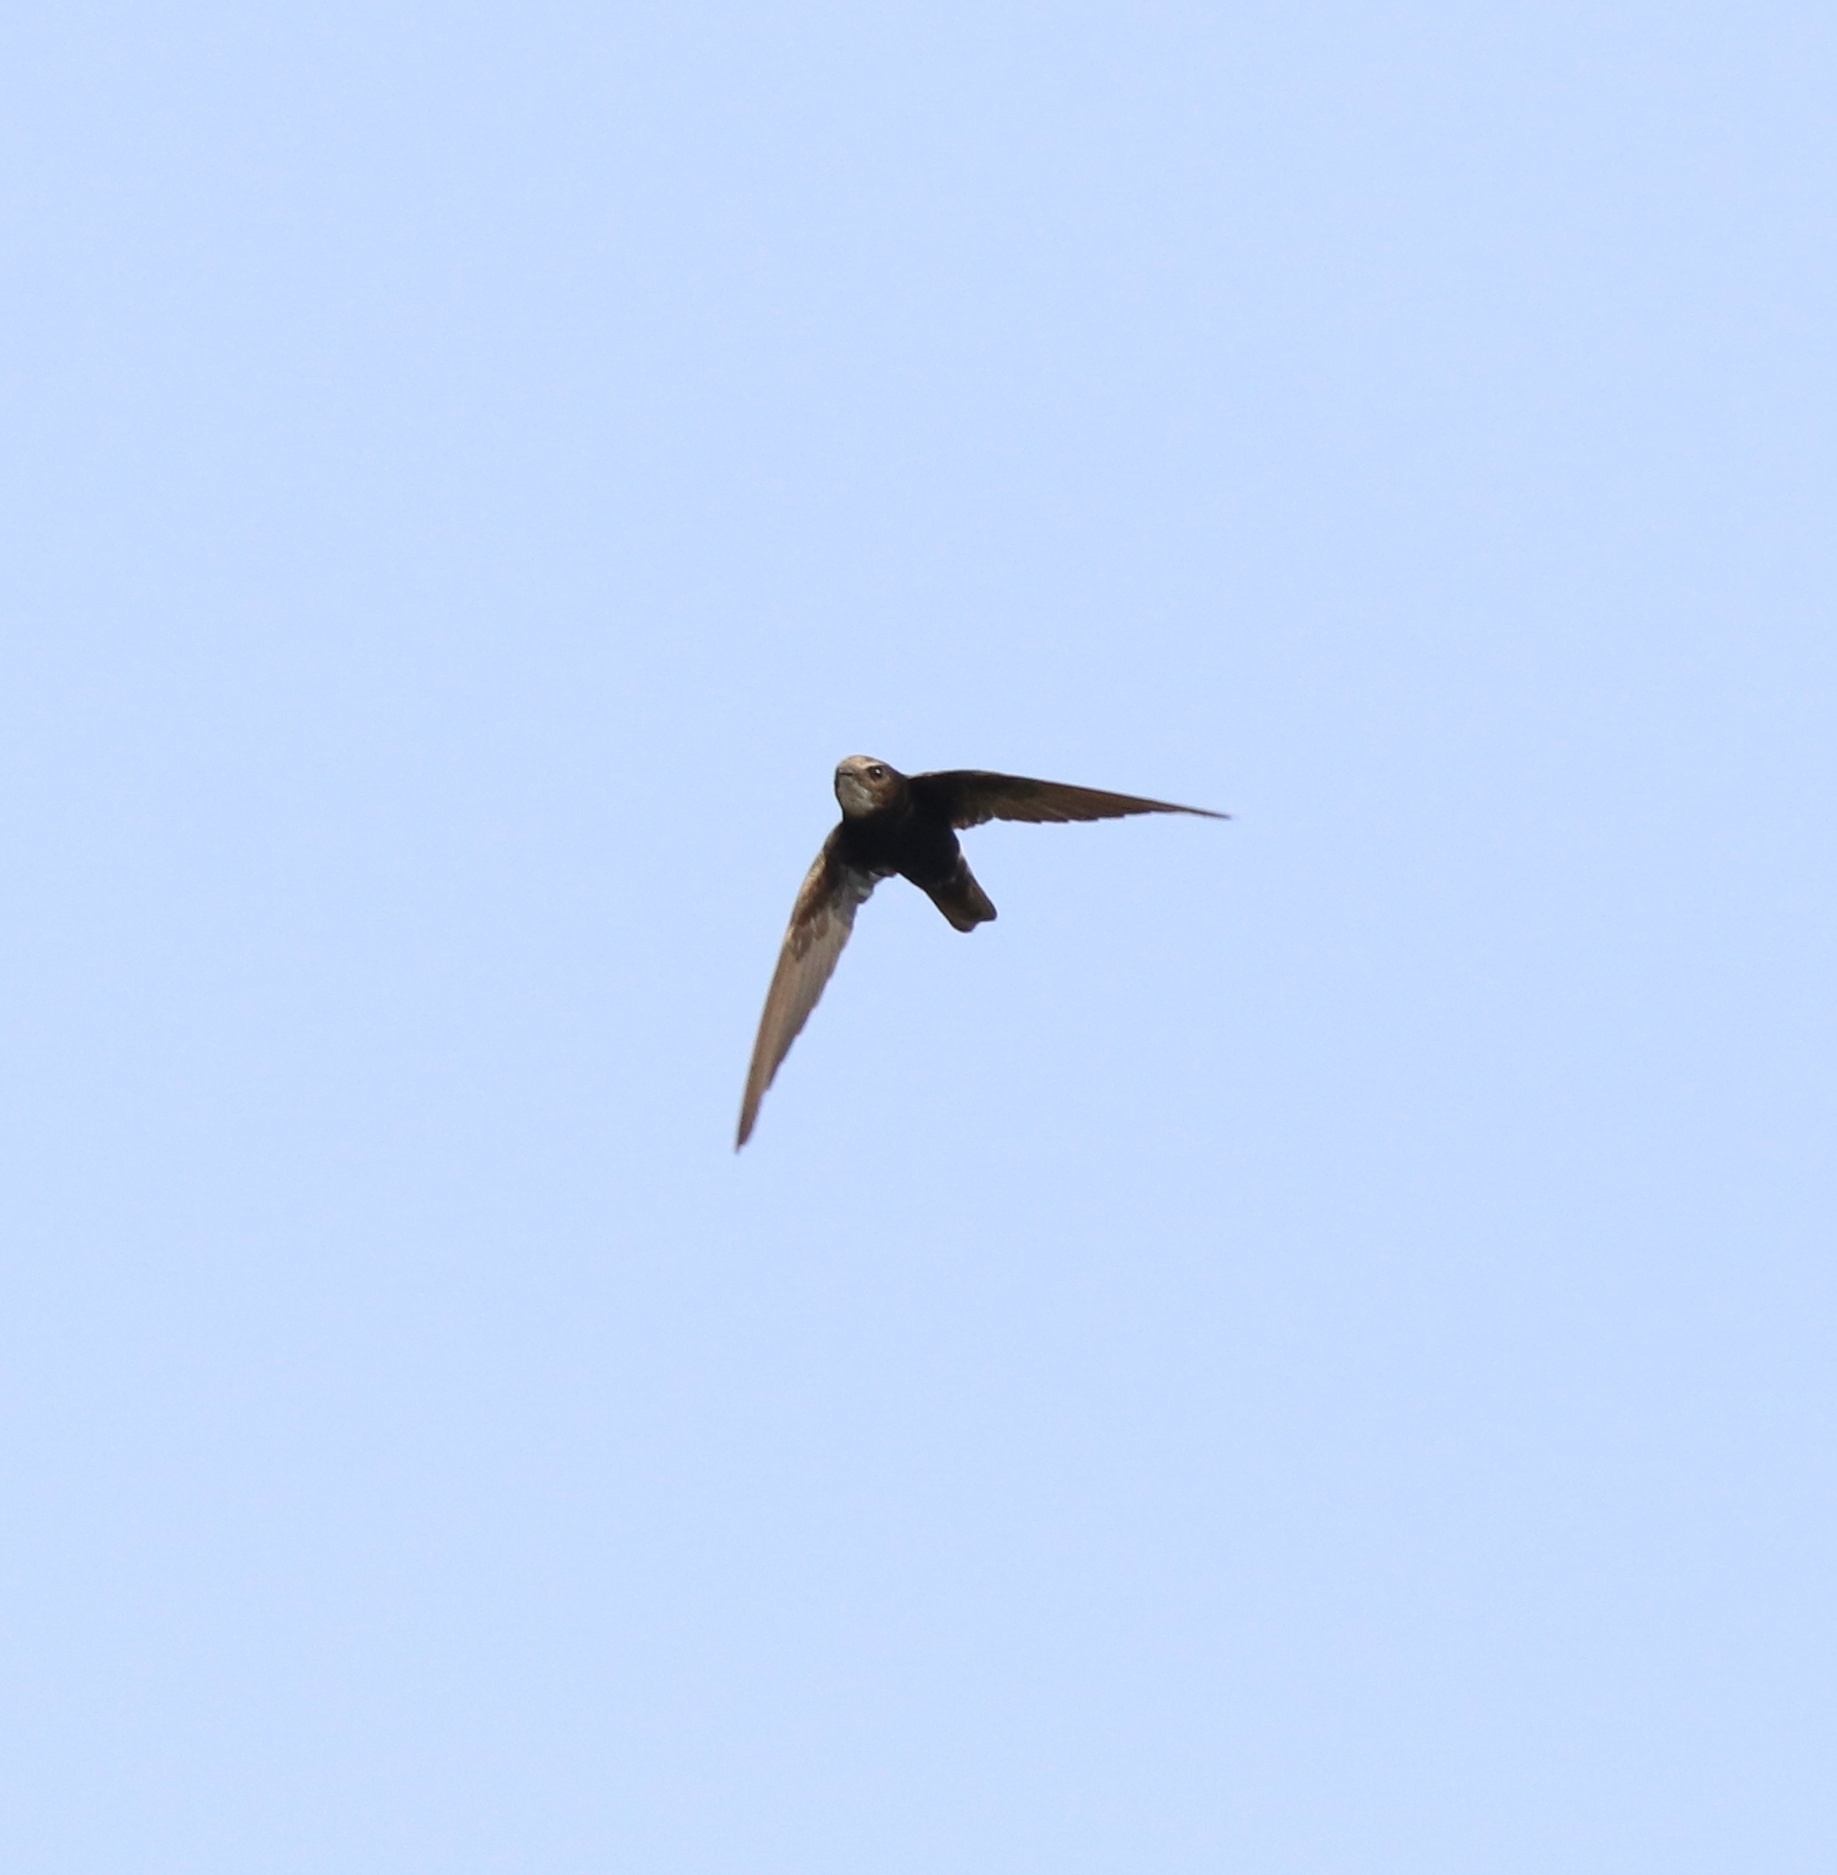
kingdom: Animalia
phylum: Chordata
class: Aves
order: Apodiformes
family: Apodidae
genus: Apus
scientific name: Apus affinis
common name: Little swift
